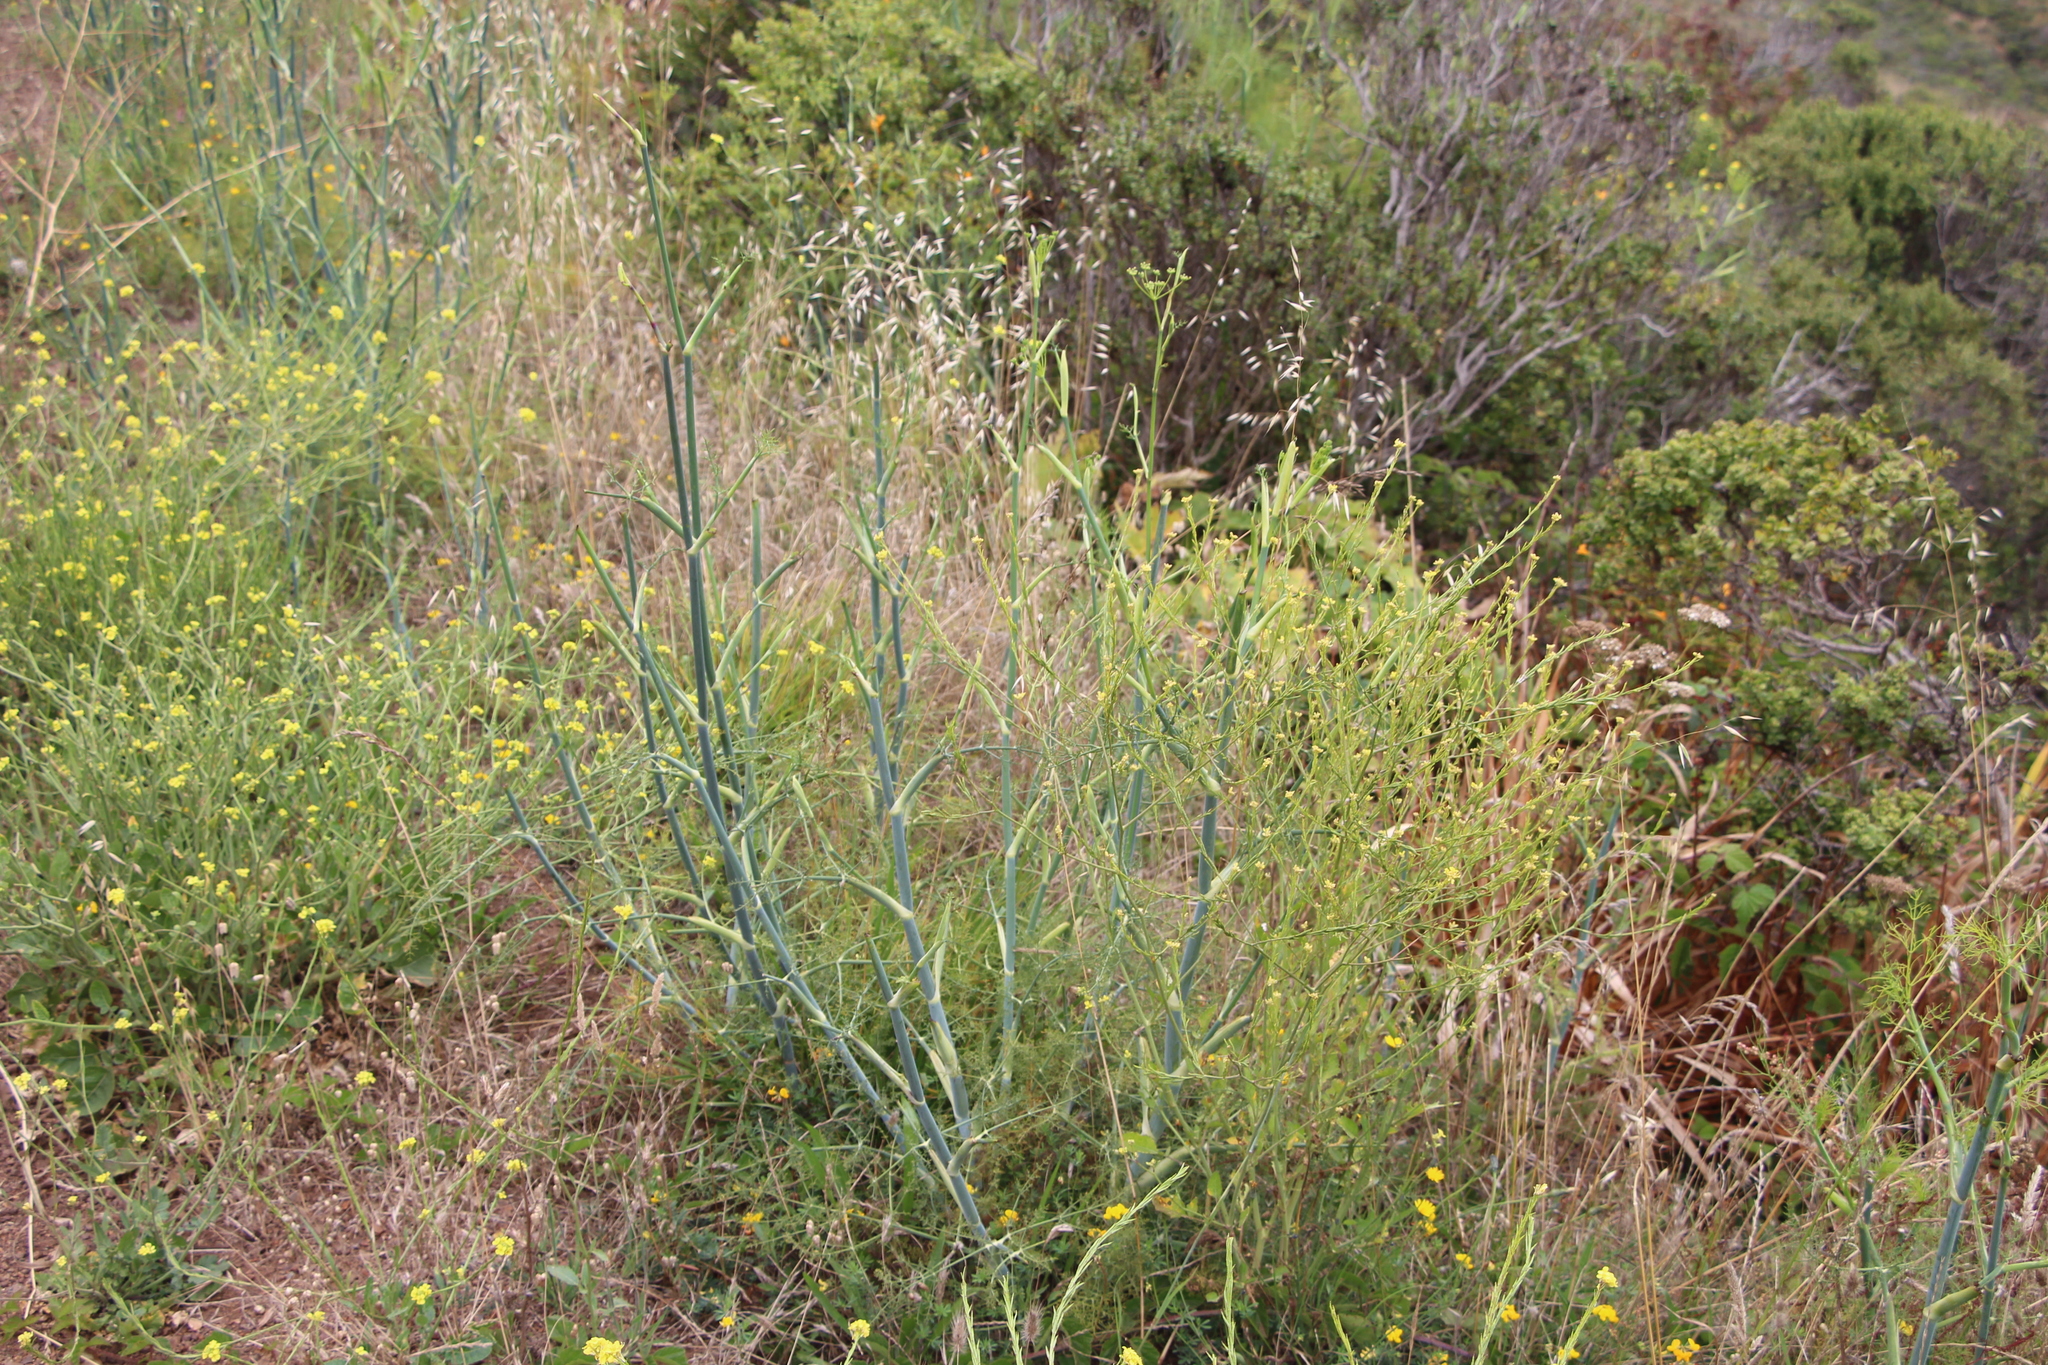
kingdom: Plantae
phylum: Tracheophyta
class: Magnoliopsida
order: Apiales
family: Apiaceae
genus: Foeniculum
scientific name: Foeniculum vulgare
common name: Fennel
